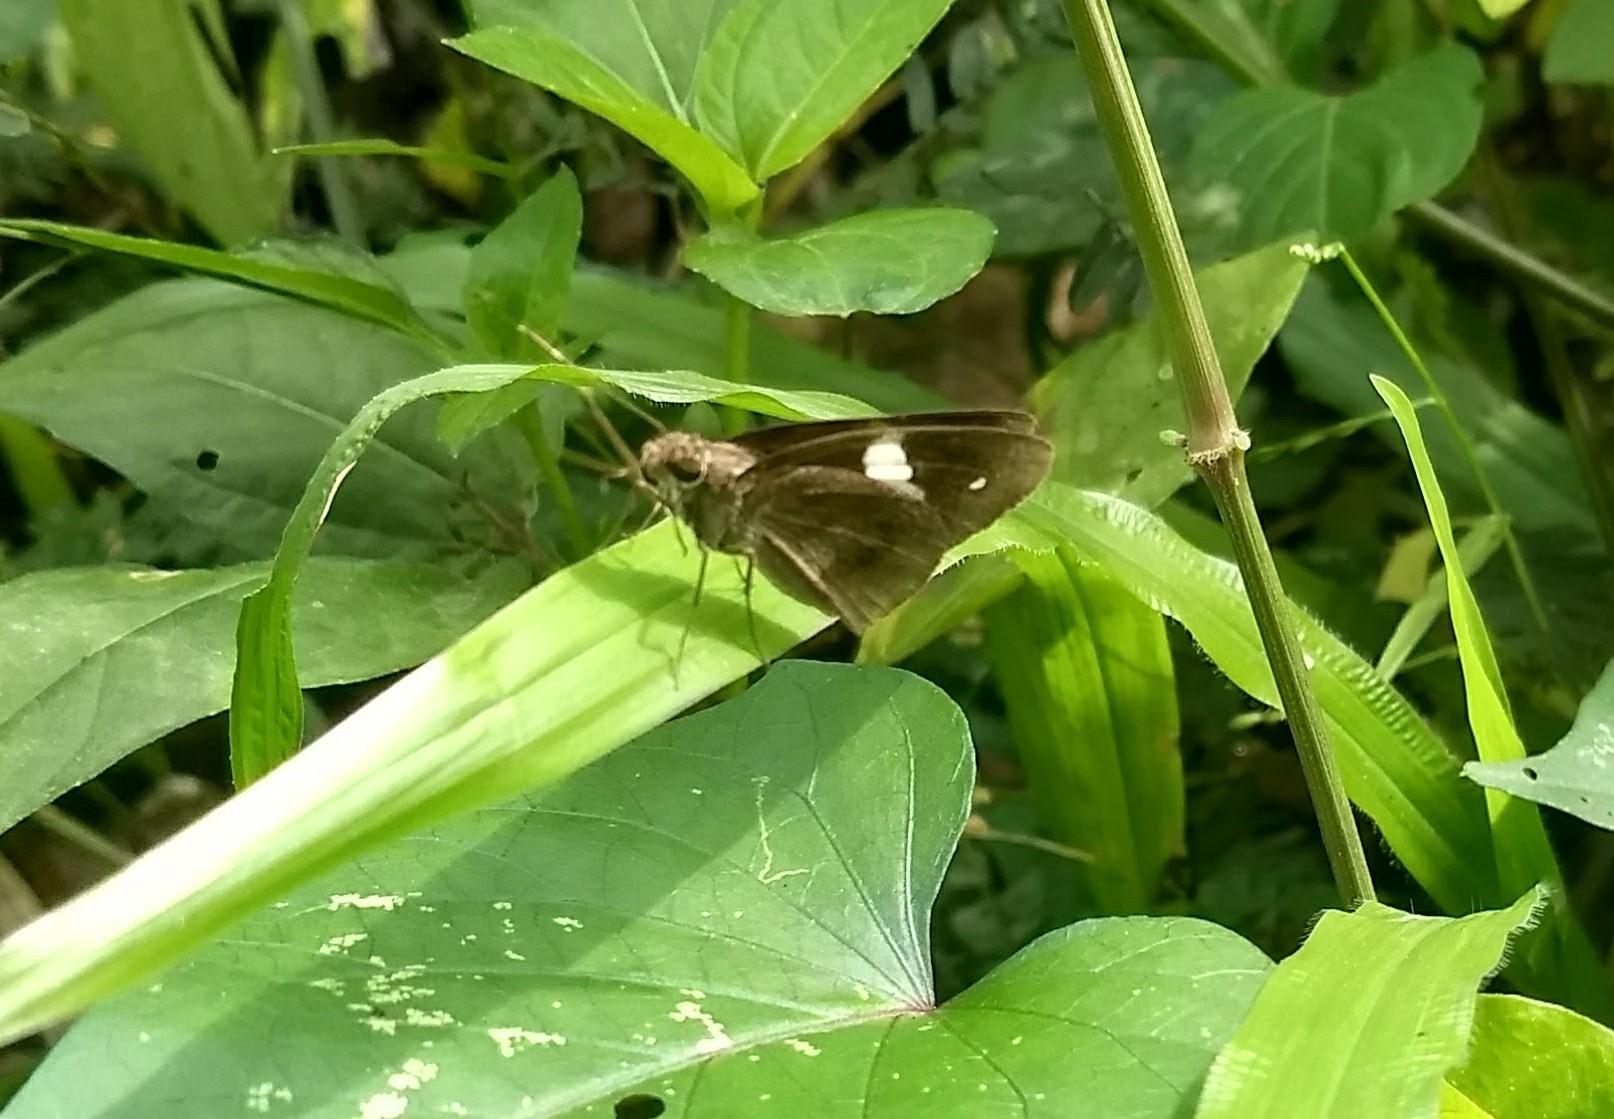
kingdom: Animalia
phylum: Arthropoda
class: Insecta
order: Lepidoptera
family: Hesperiidae
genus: Notocrypta
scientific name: Notocrypta paralysos
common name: Common banded demon
